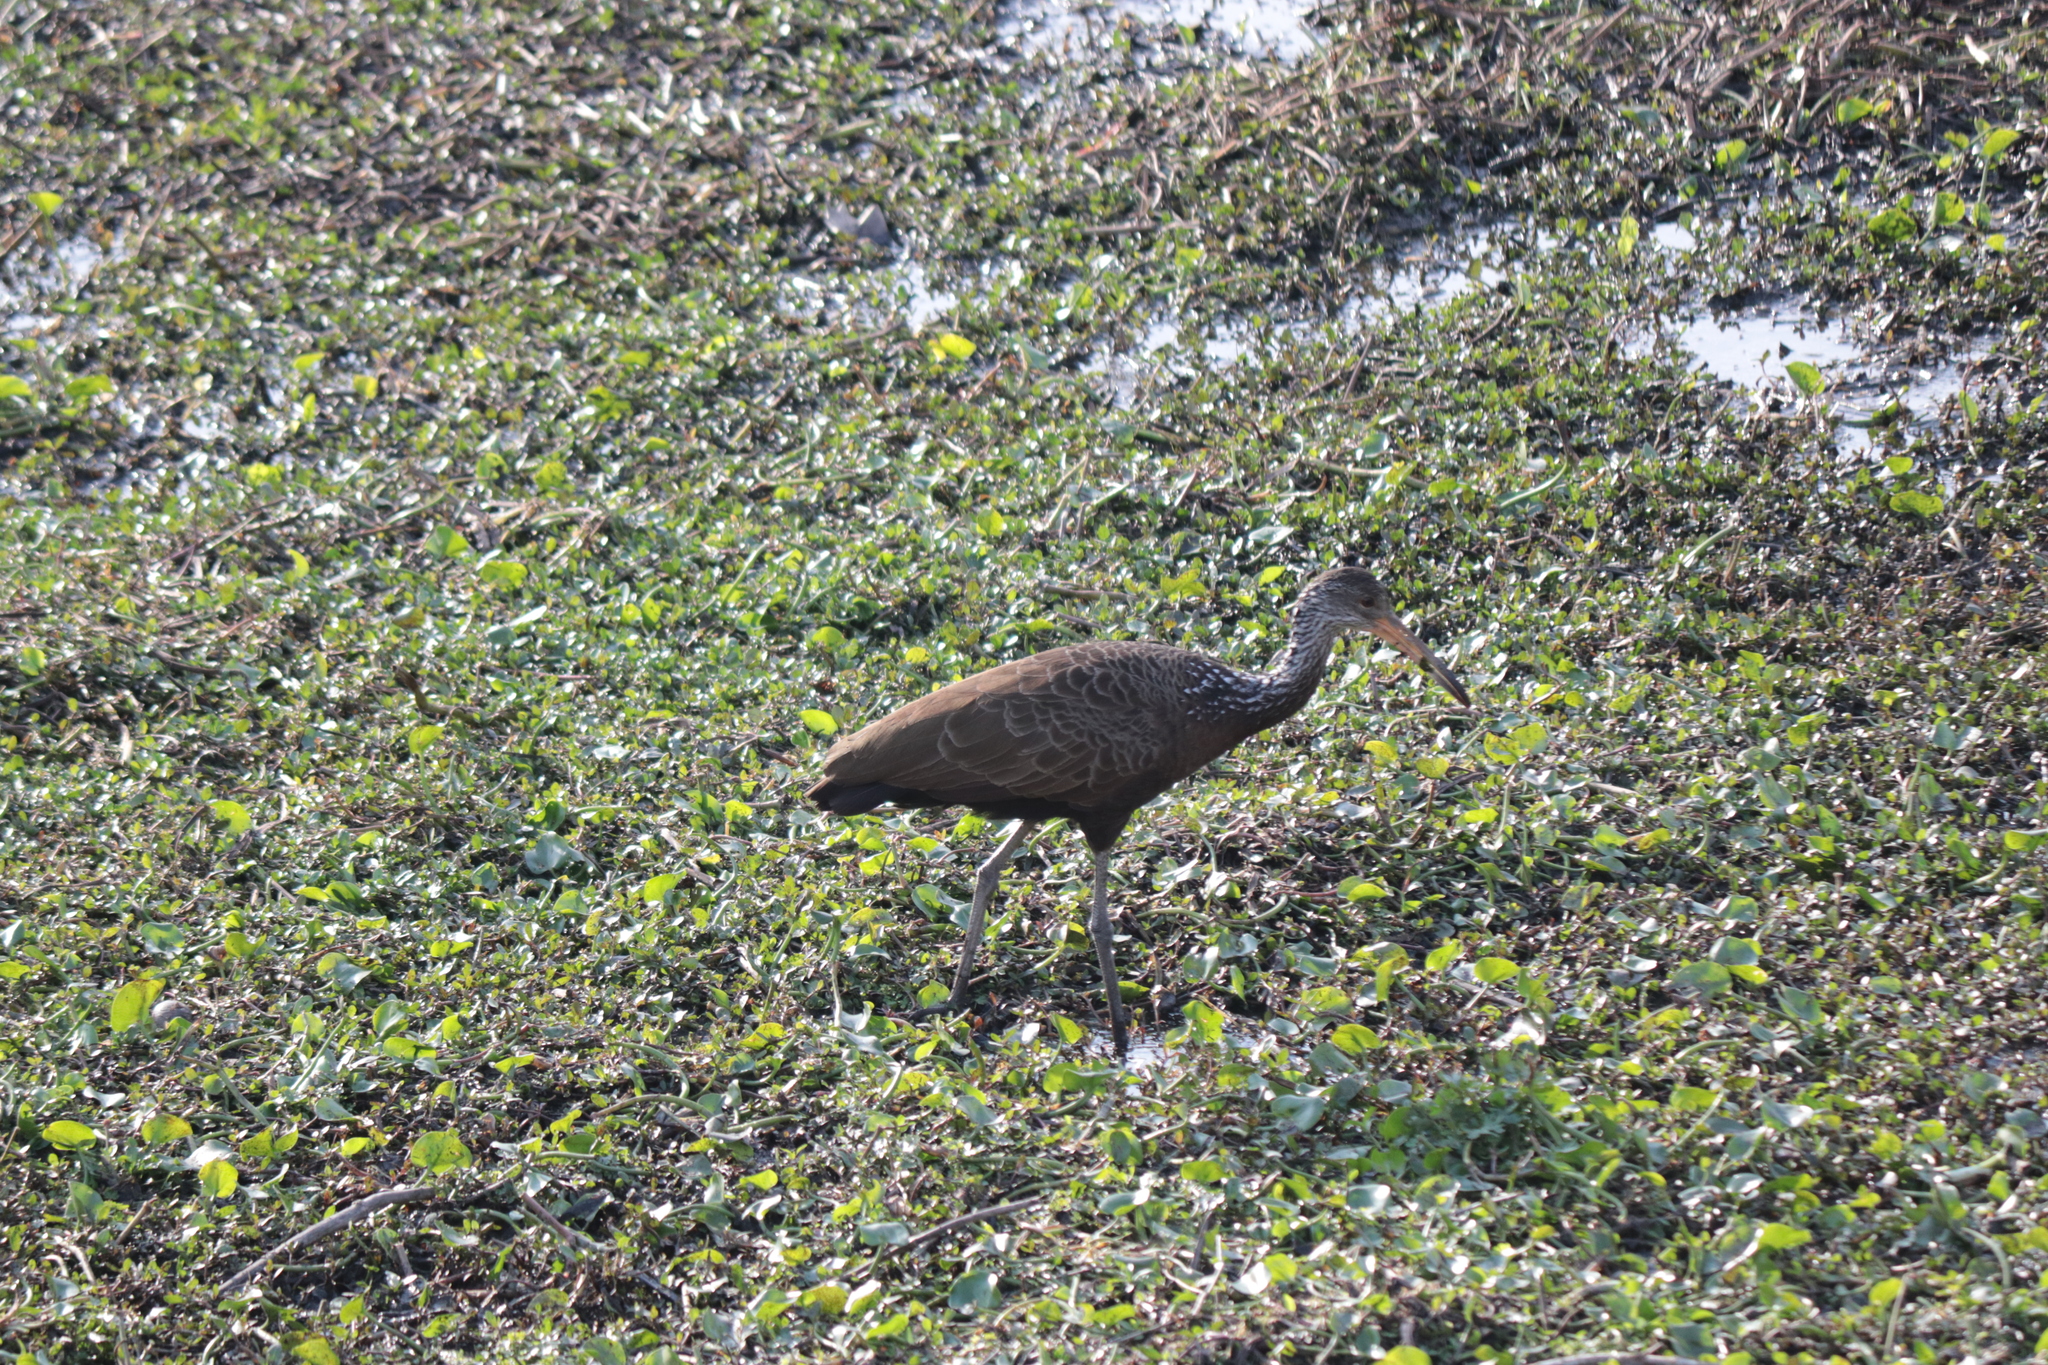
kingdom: Animalia
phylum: Chordata
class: Aves
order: Gruiformes
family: Aramidae
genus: Aramus
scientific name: Aramus guarauna
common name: Limpkin
